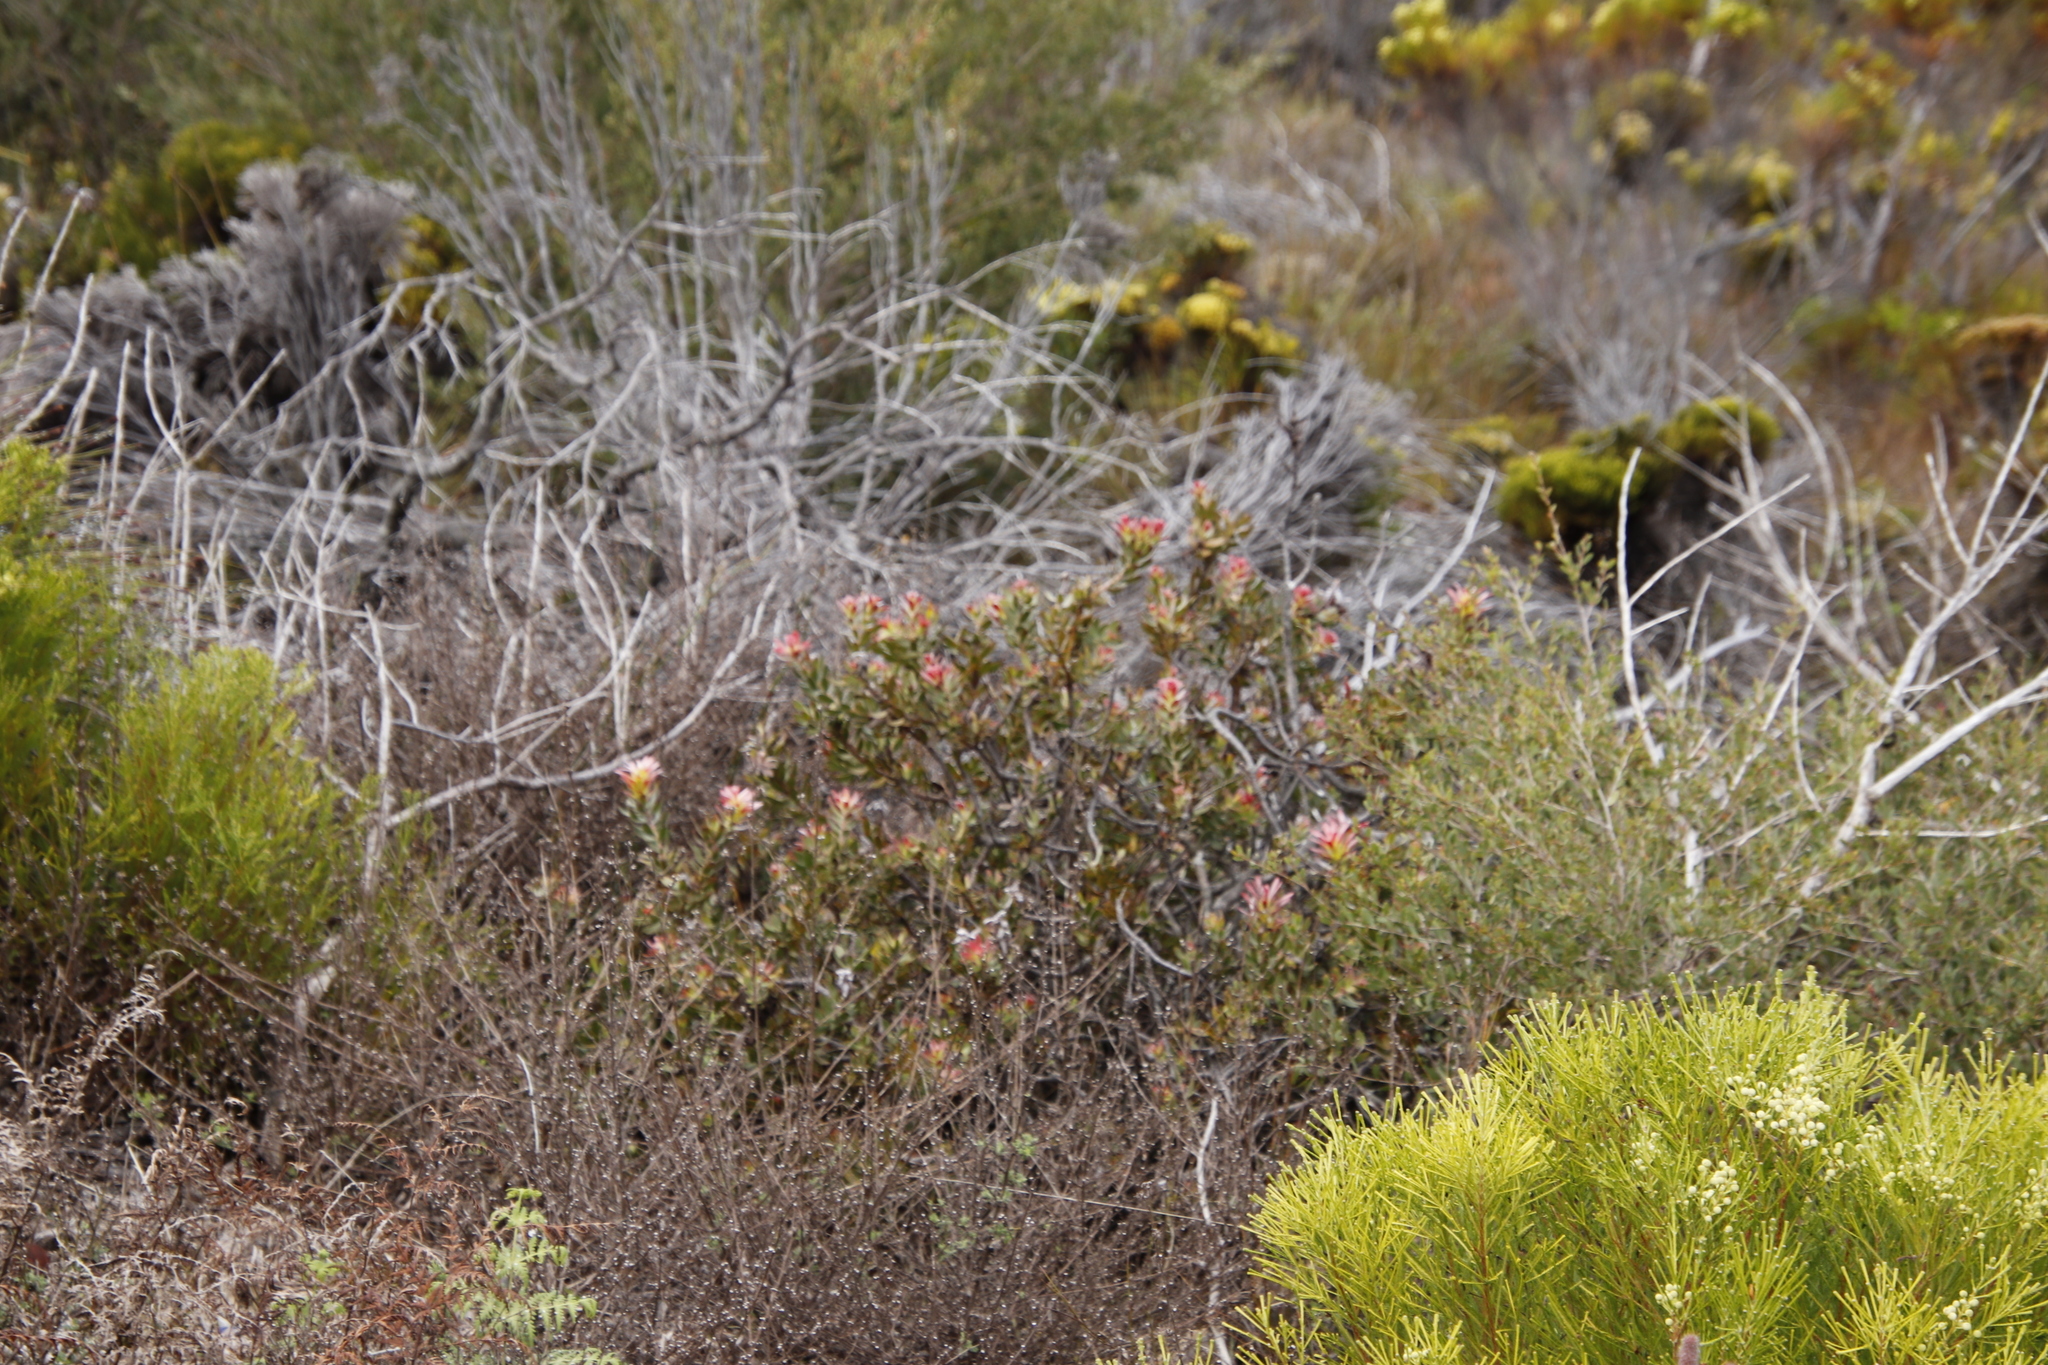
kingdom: Plantae
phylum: Tracheophyta
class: Magnoliopsida
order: Proteales
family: Proteaceae
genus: Mimetes
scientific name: Mimetes cucullatus
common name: Common pagoda
